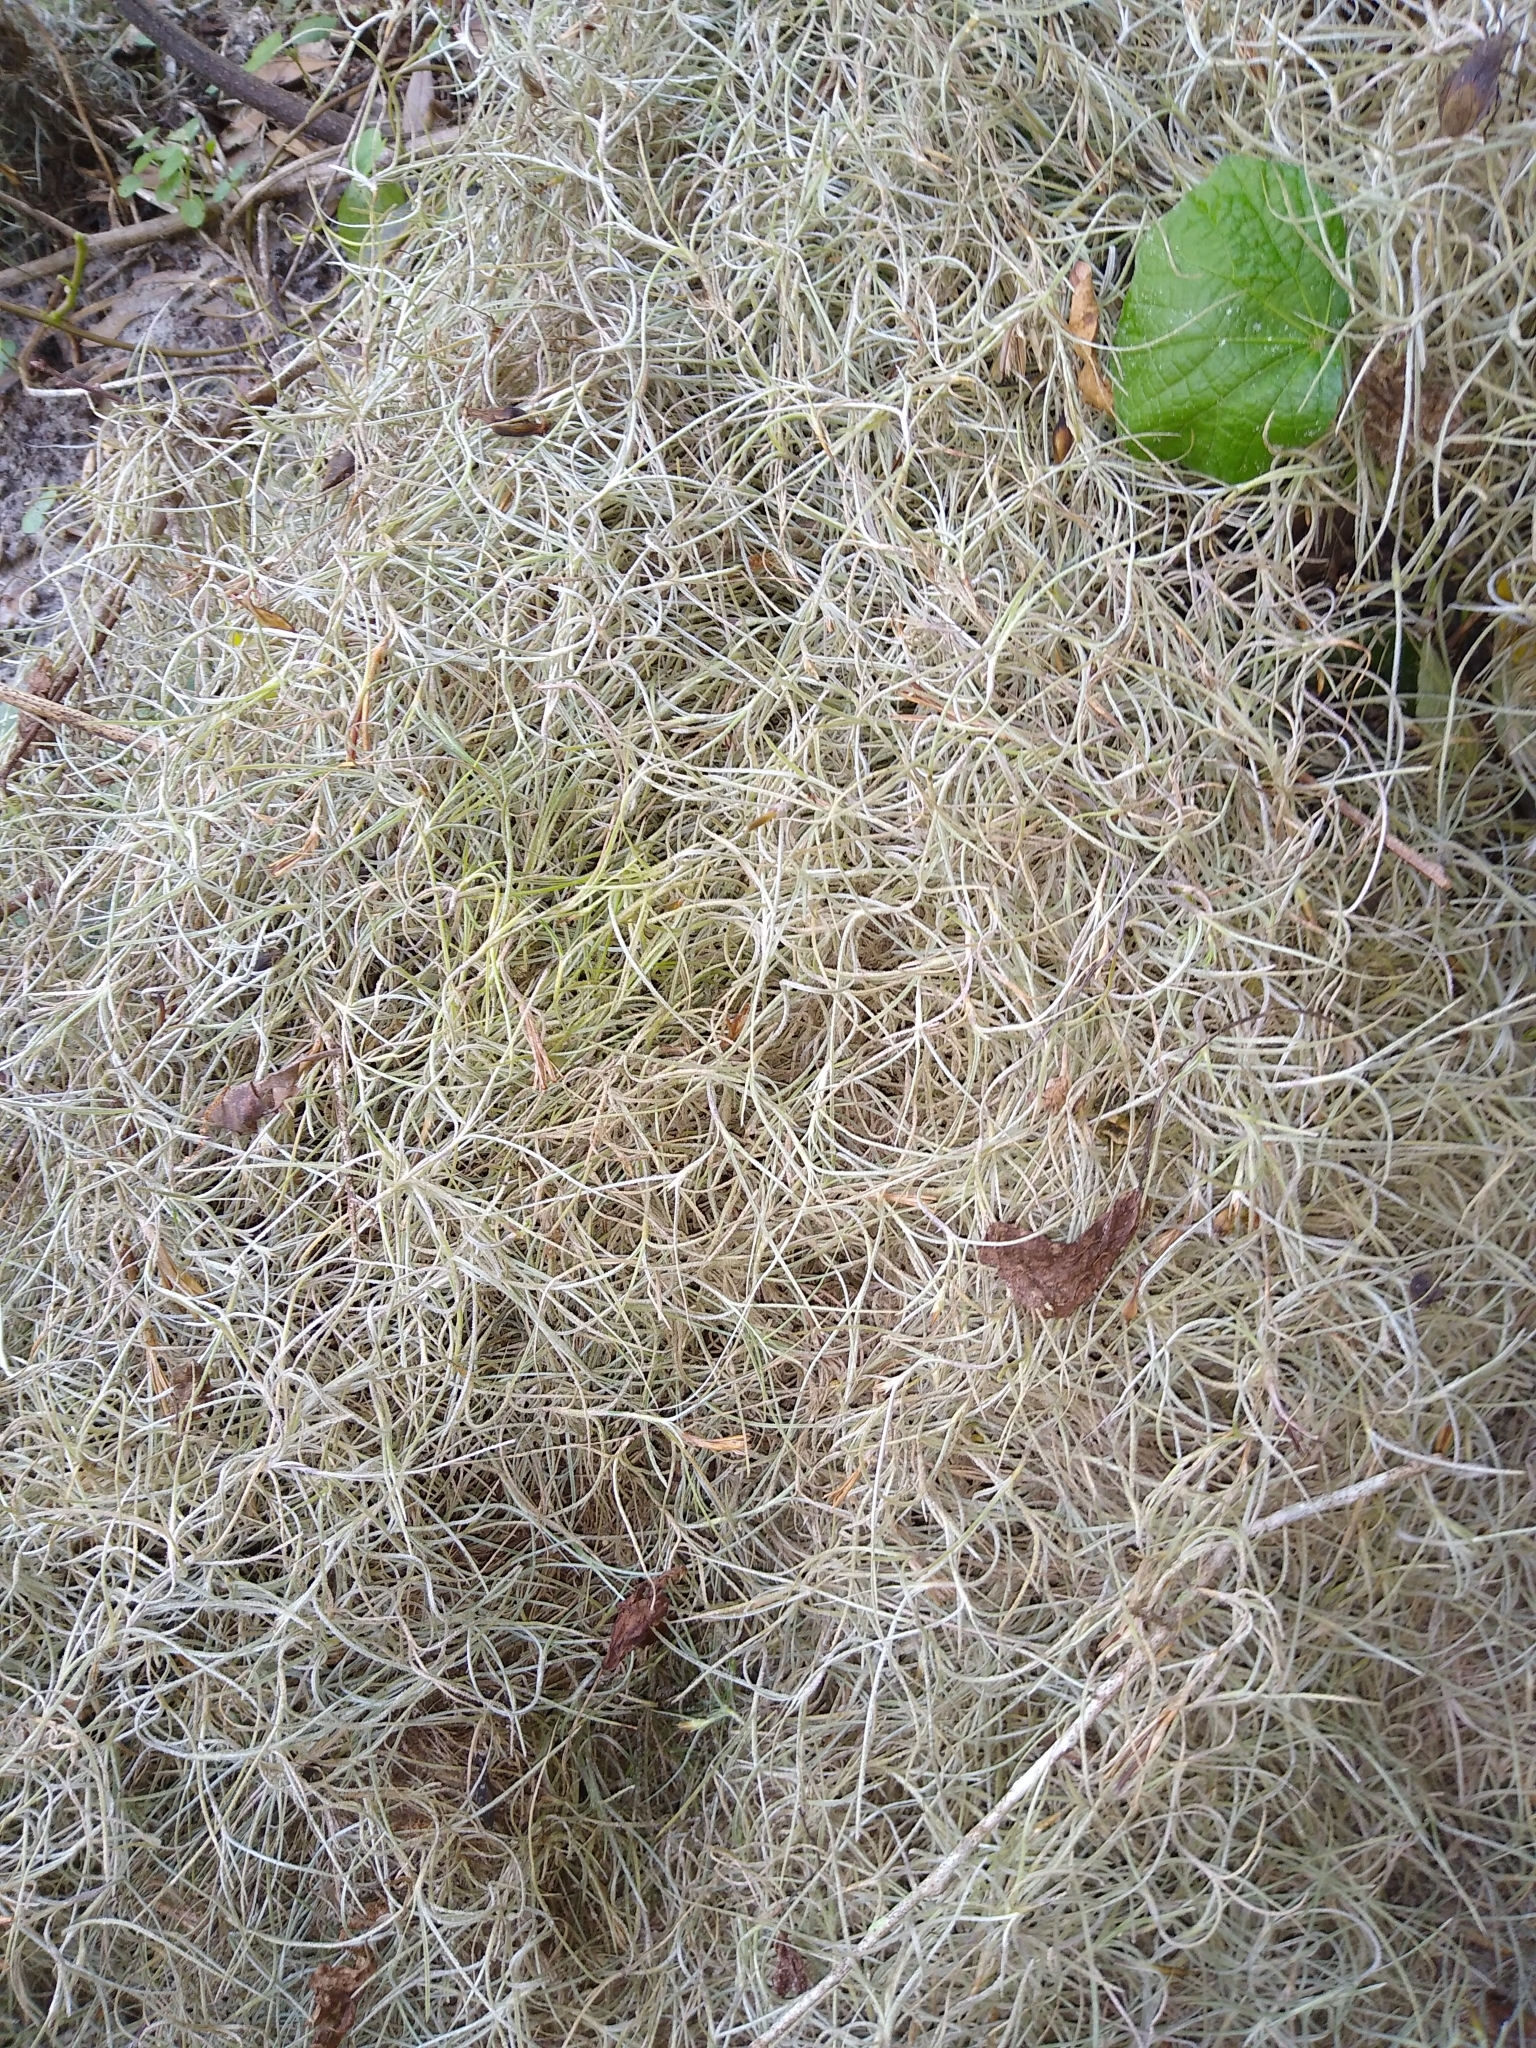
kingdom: Plantae
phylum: Tracheophyta
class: Liliopsida
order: Poales
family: Bromeliaceae
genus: Tillandsia
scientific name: Tillandsia usneoides
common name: Spanish moss
